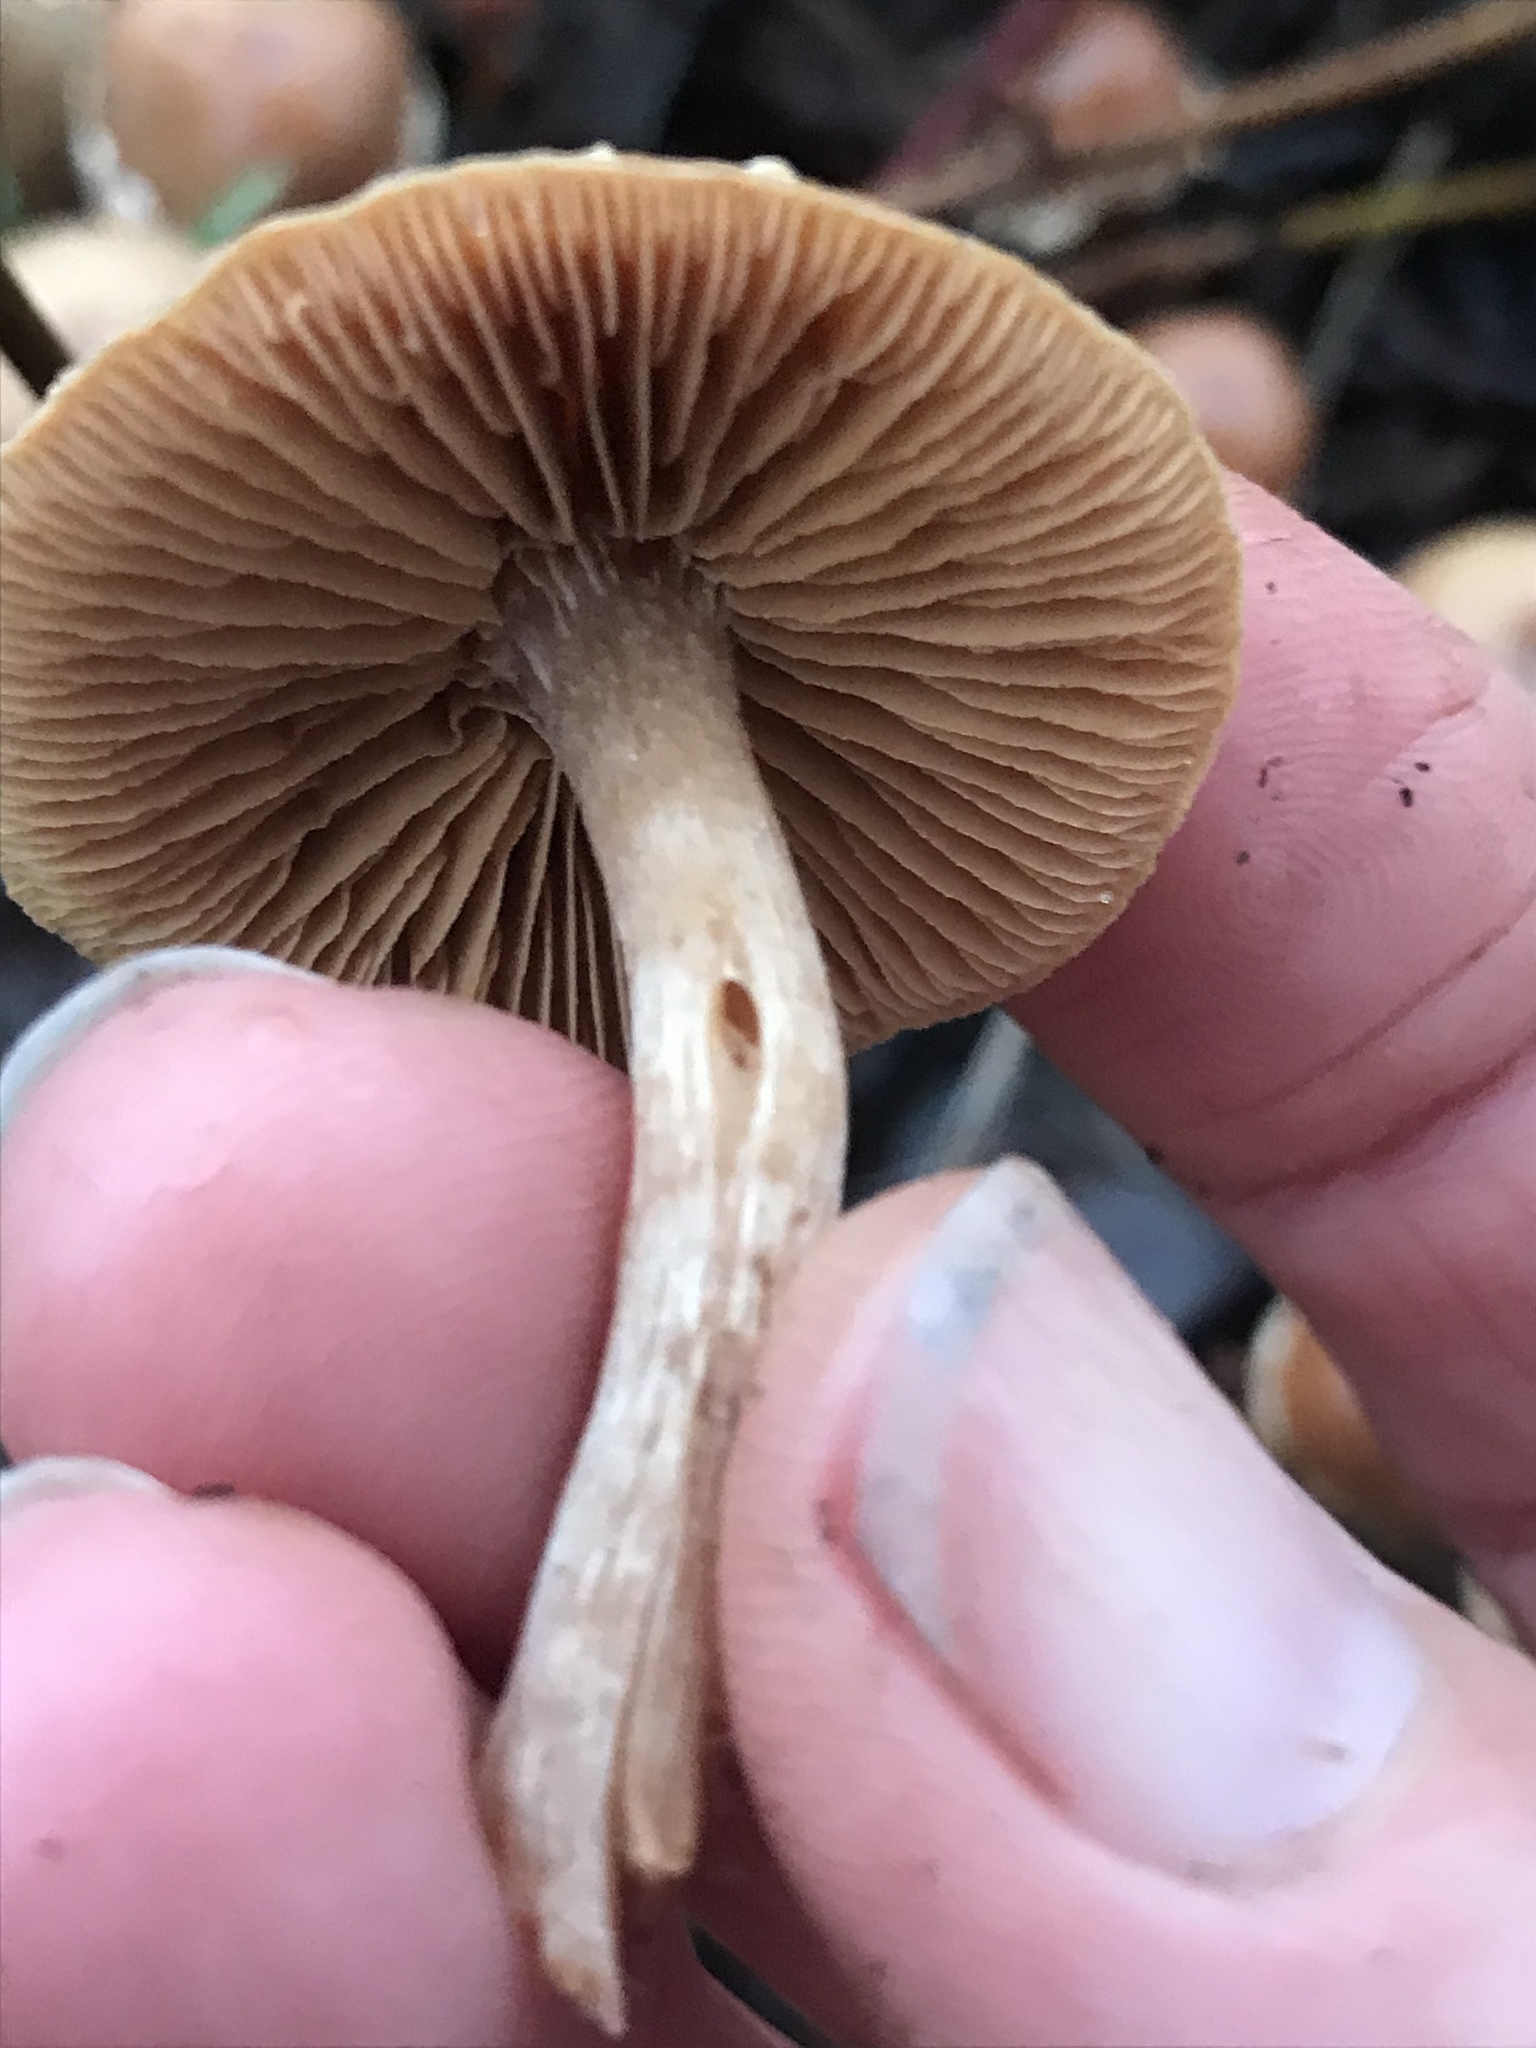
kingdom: Fungi
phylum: Basidiomycota
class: Agaricomycetes
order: Agaricales
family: Tubariaceae
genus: Tubaria
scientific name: Tubaria furfuracea
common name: Scurfy twiglet
